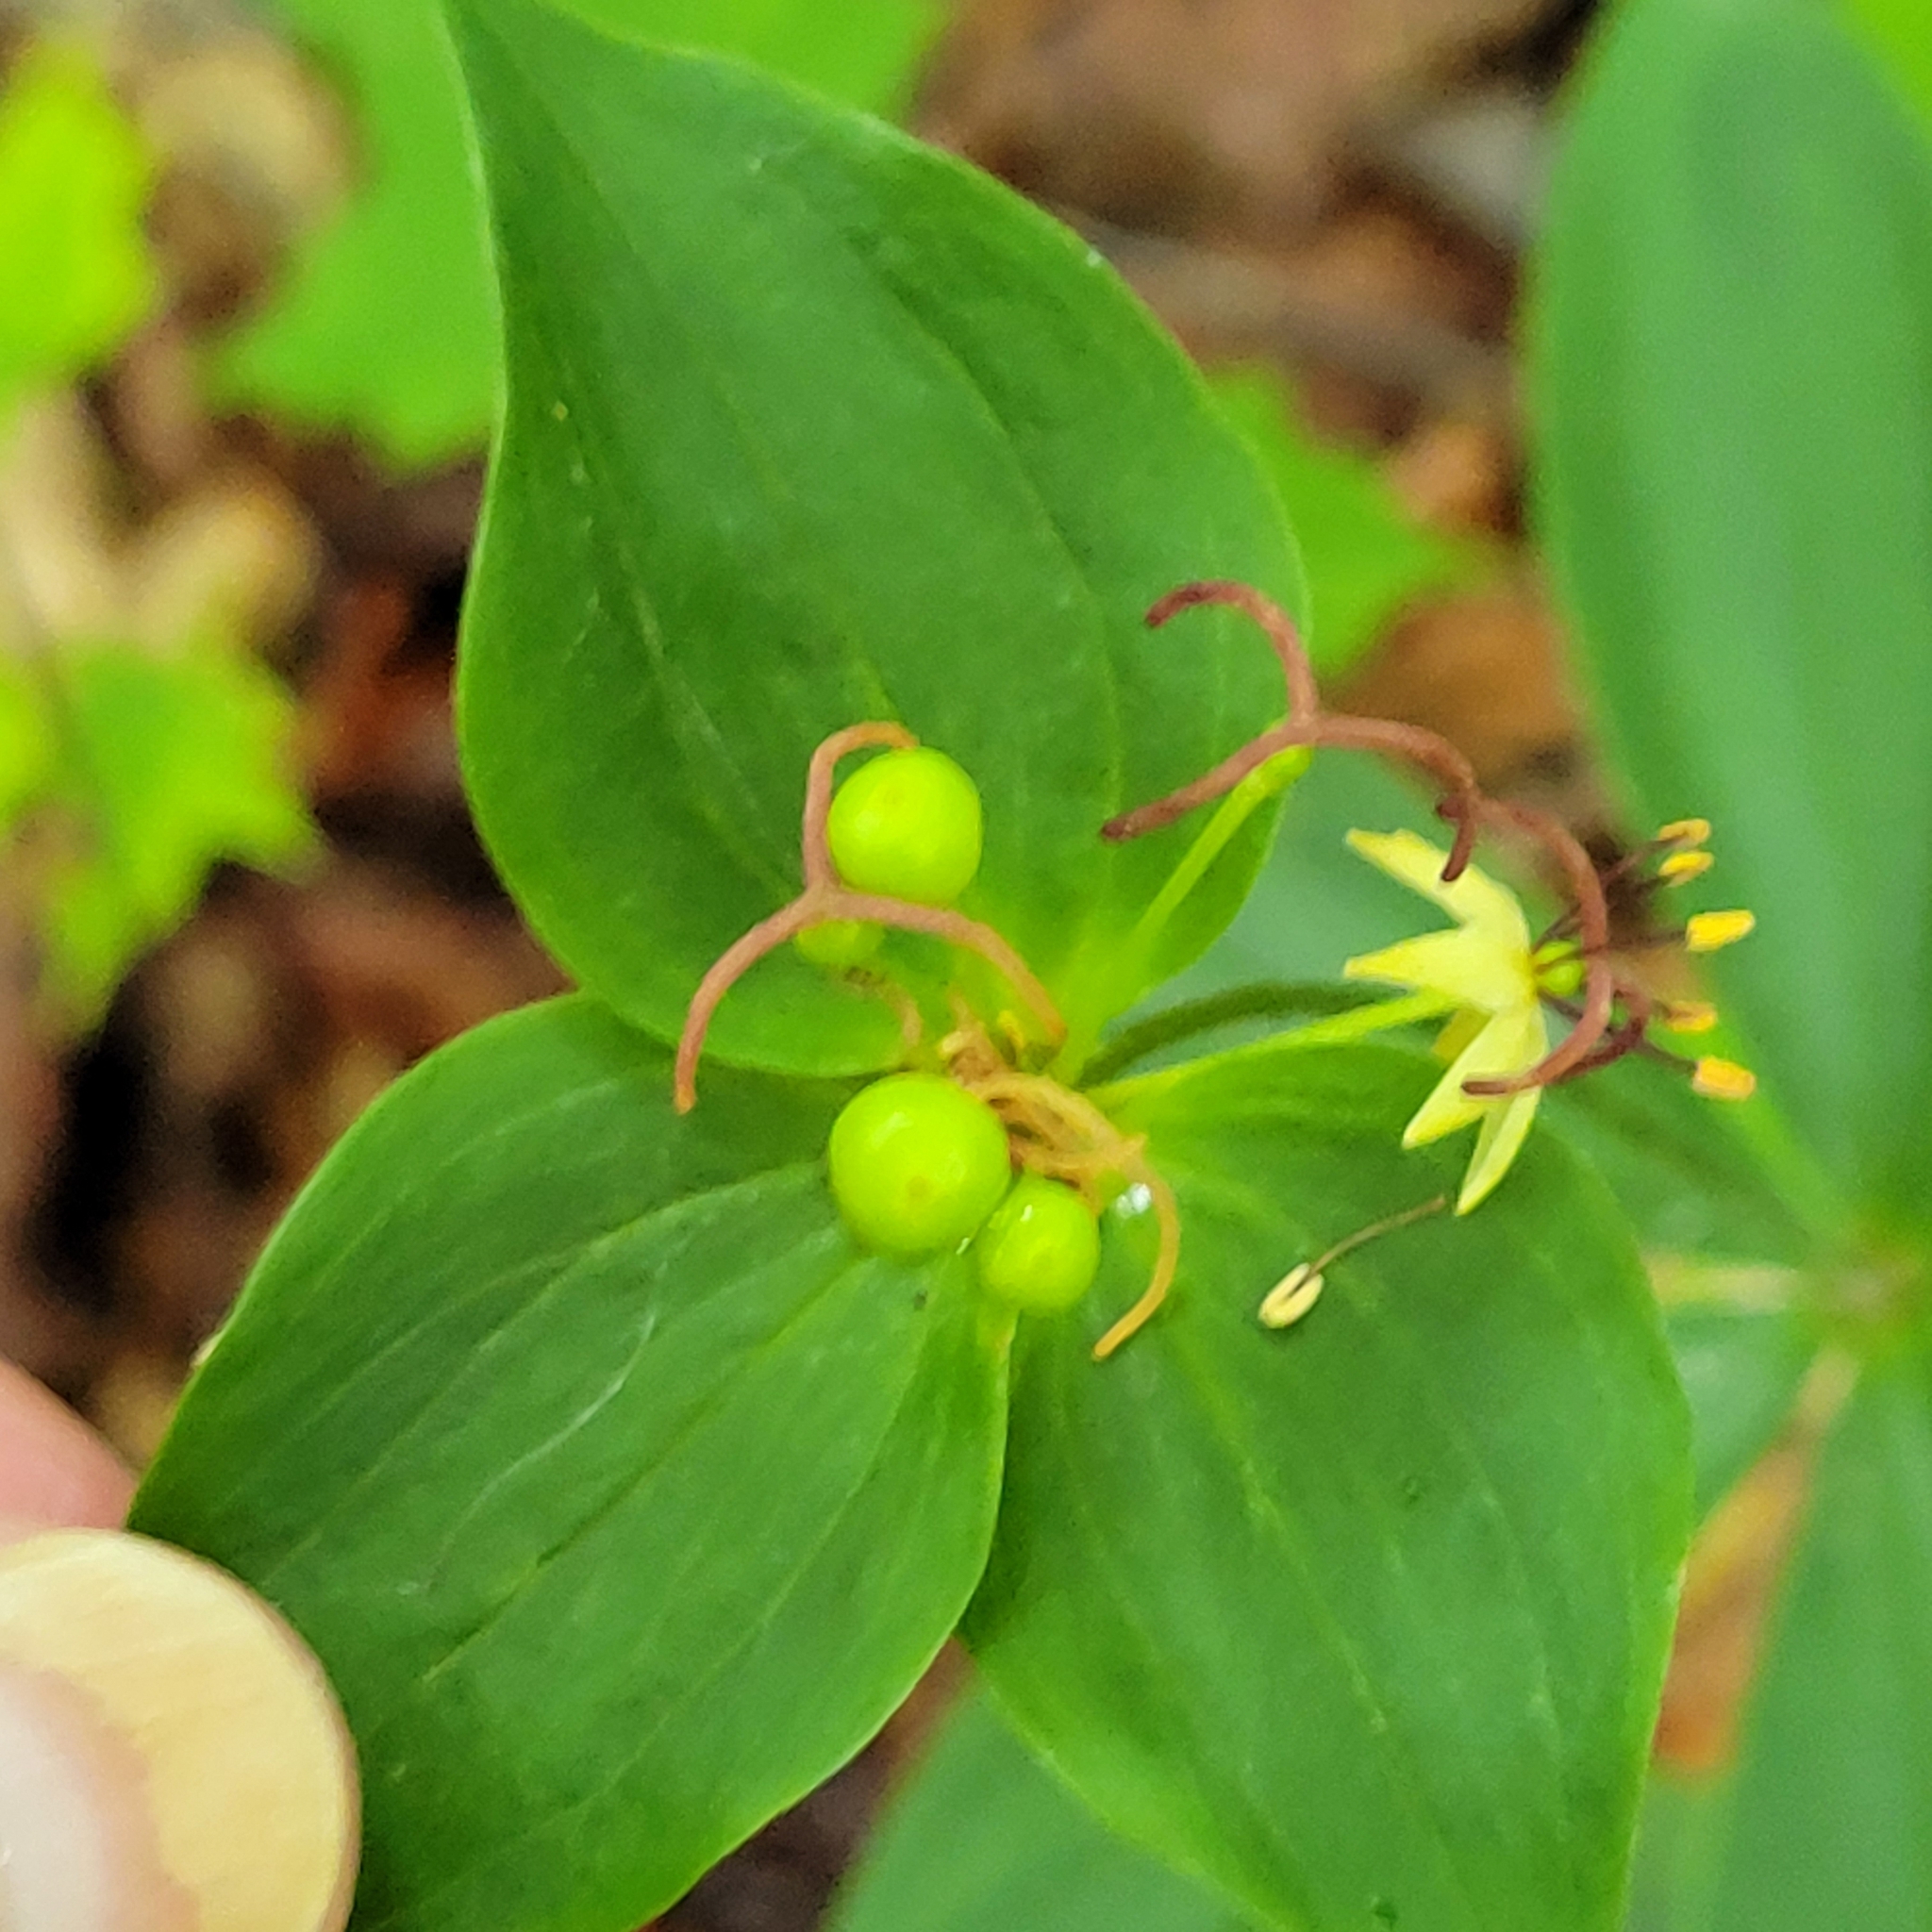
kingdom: Plantae
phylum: Tracheophyta
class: Liliopsida
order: Liliales
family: Liliaceae
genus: Medeola
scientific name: Medeola virginiana
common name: Indian cucumber-root
